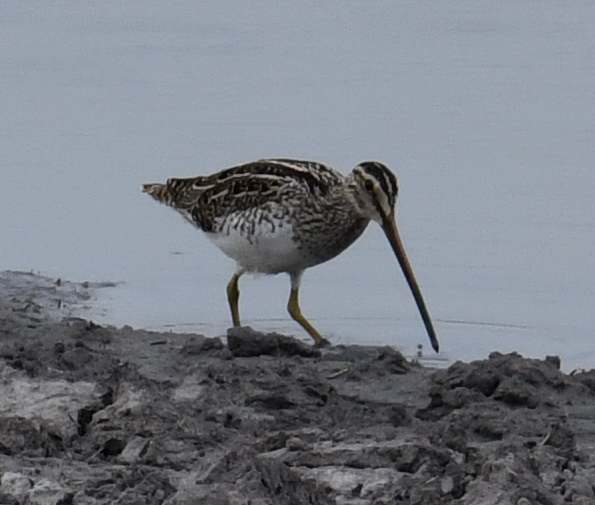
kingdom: Animalia
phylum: Chordata
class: Aves
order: Charadriiformes
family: Scolopacidae
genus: Gallinago
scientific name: Gallinago nigripennis
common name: African snipe
